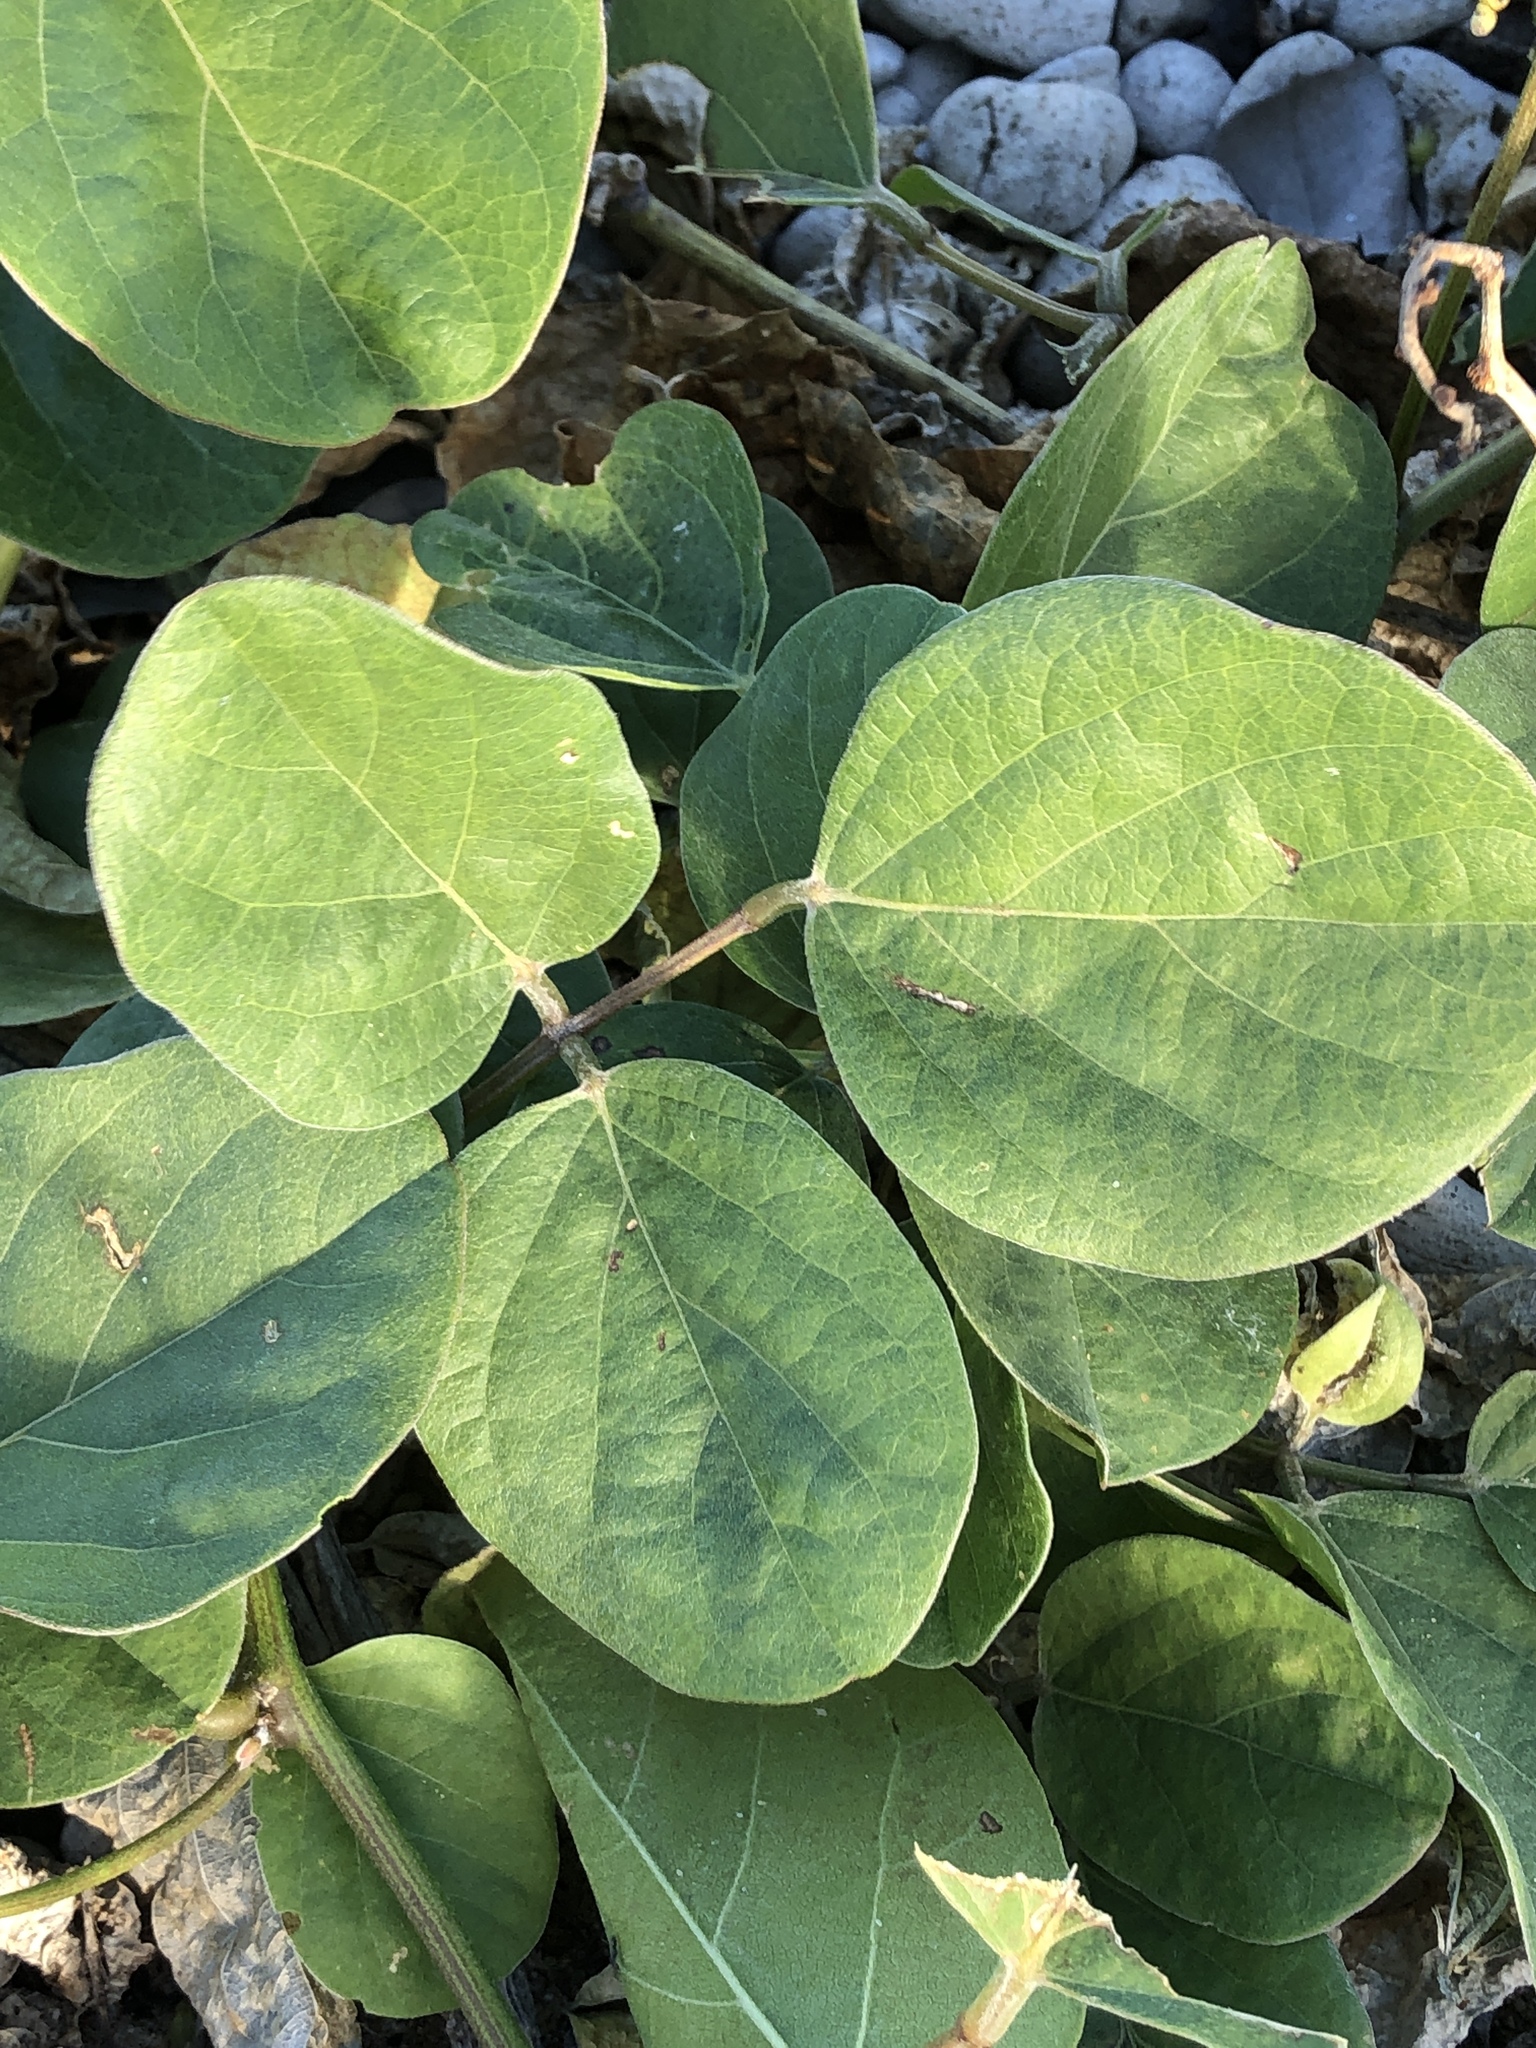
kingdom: Plantae
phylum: Tracheophyta
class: Magnoliopsida
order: Fabales
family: Fabaceae
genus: Canavalia
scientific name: Canavalia rosea
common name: Beach-bean
